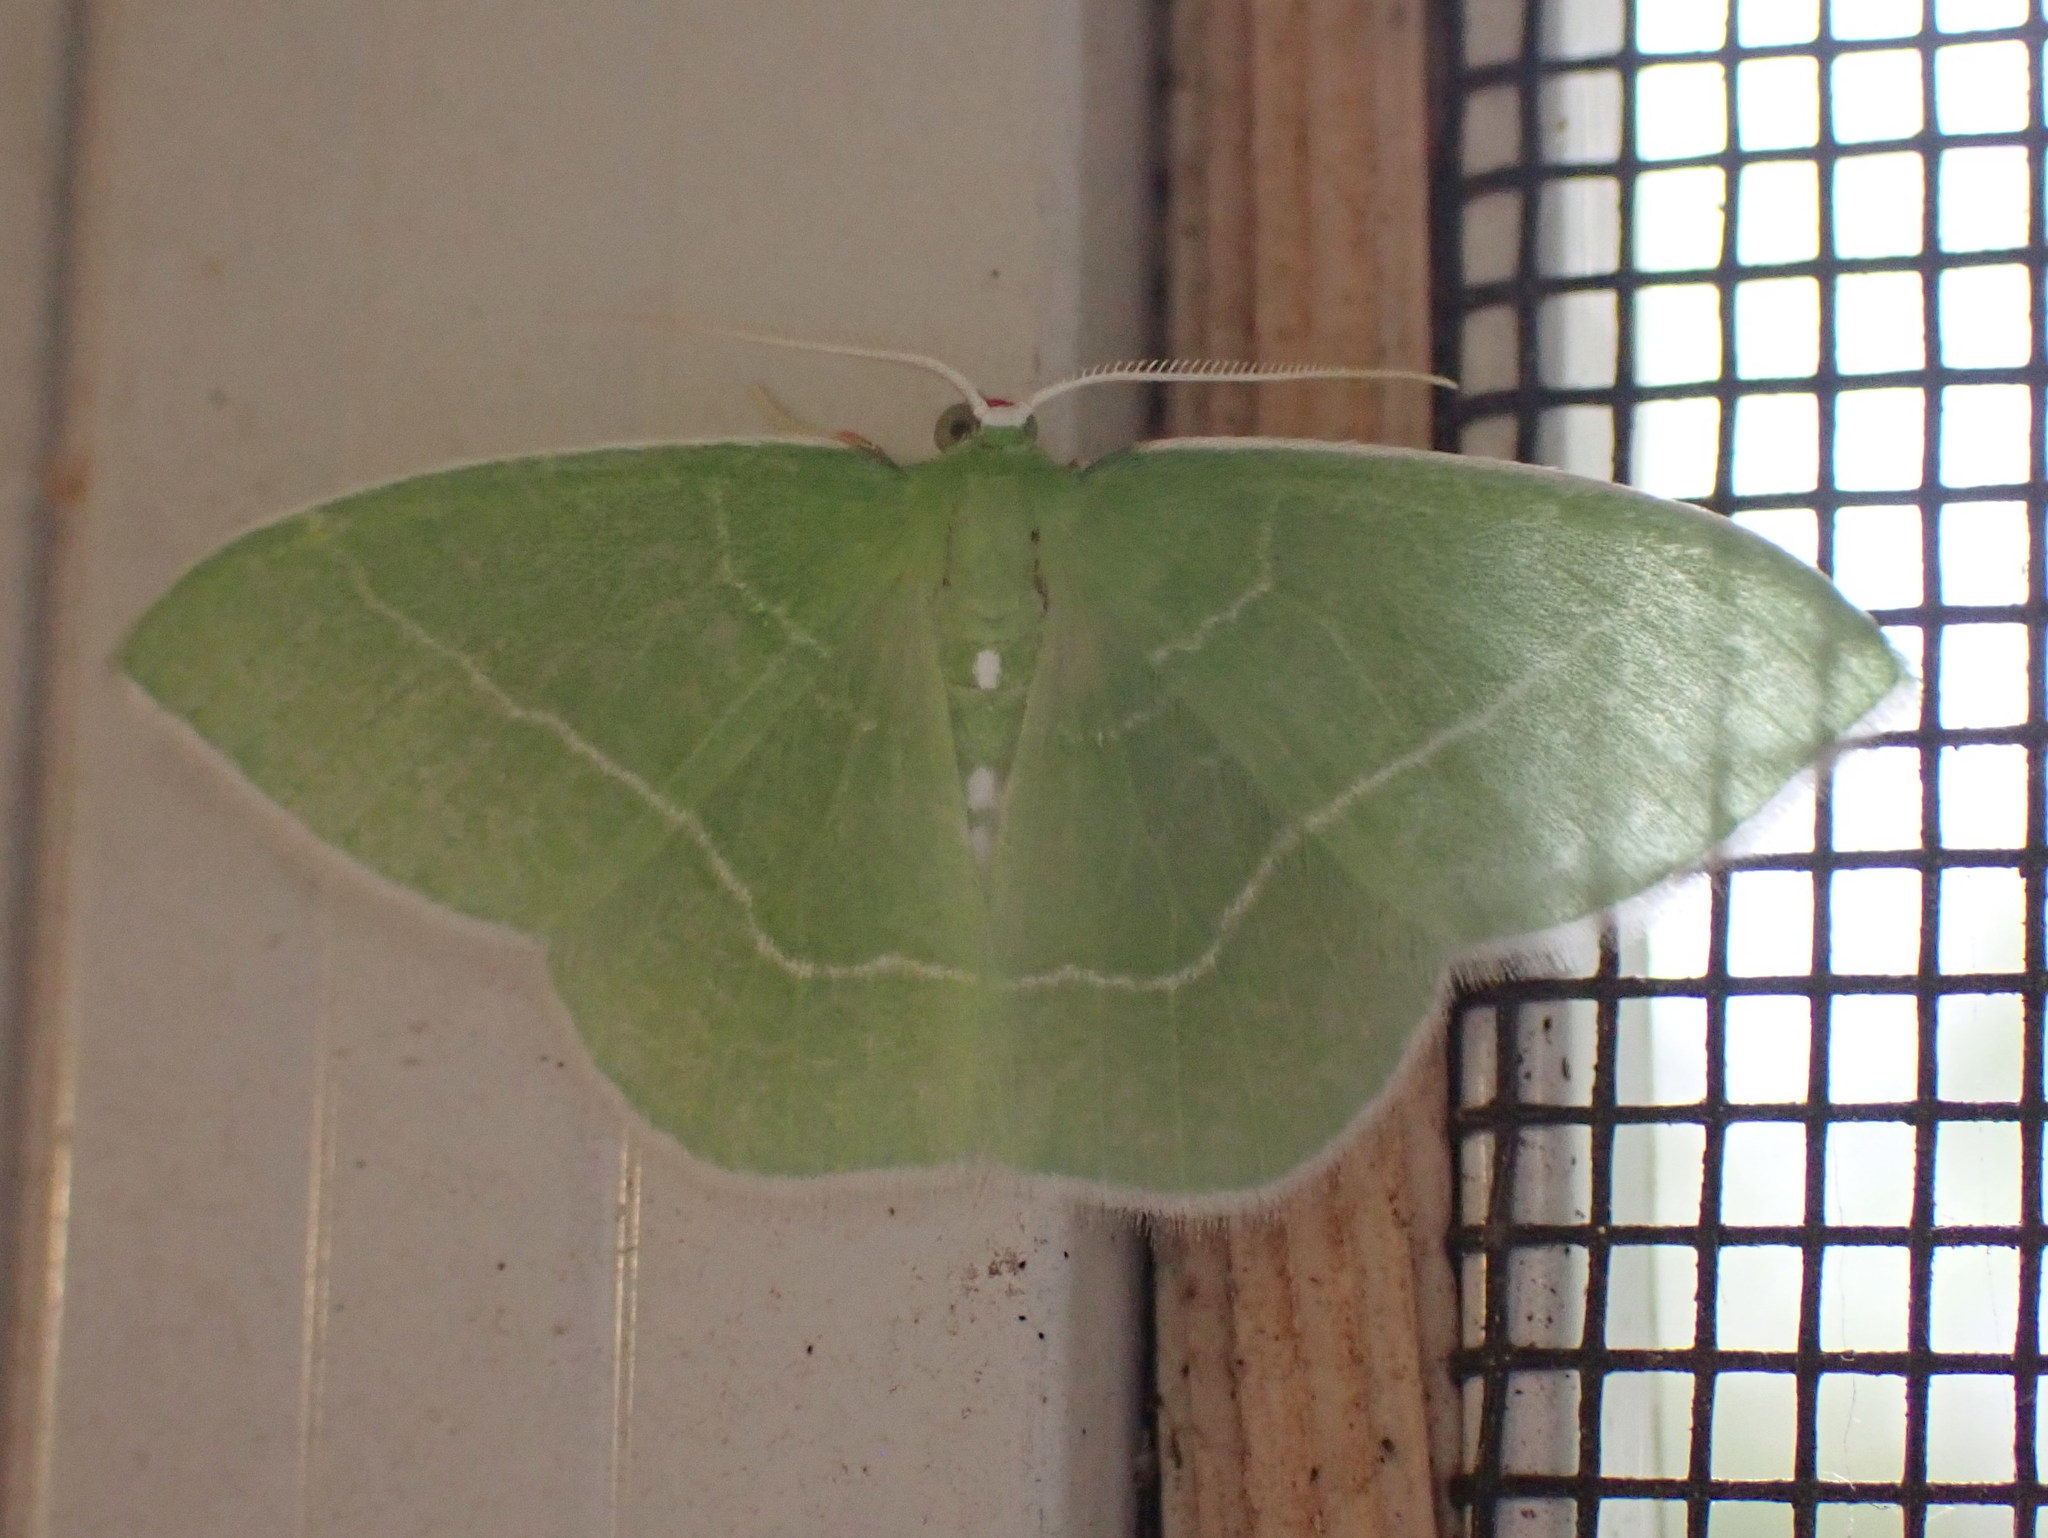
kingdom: Animalia
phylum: Arthropoda
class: Insecta
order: Lepidoptera
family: Geometridae
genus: Nemoria
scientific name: Nemoria mimosaria
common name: White-fringed emerald
